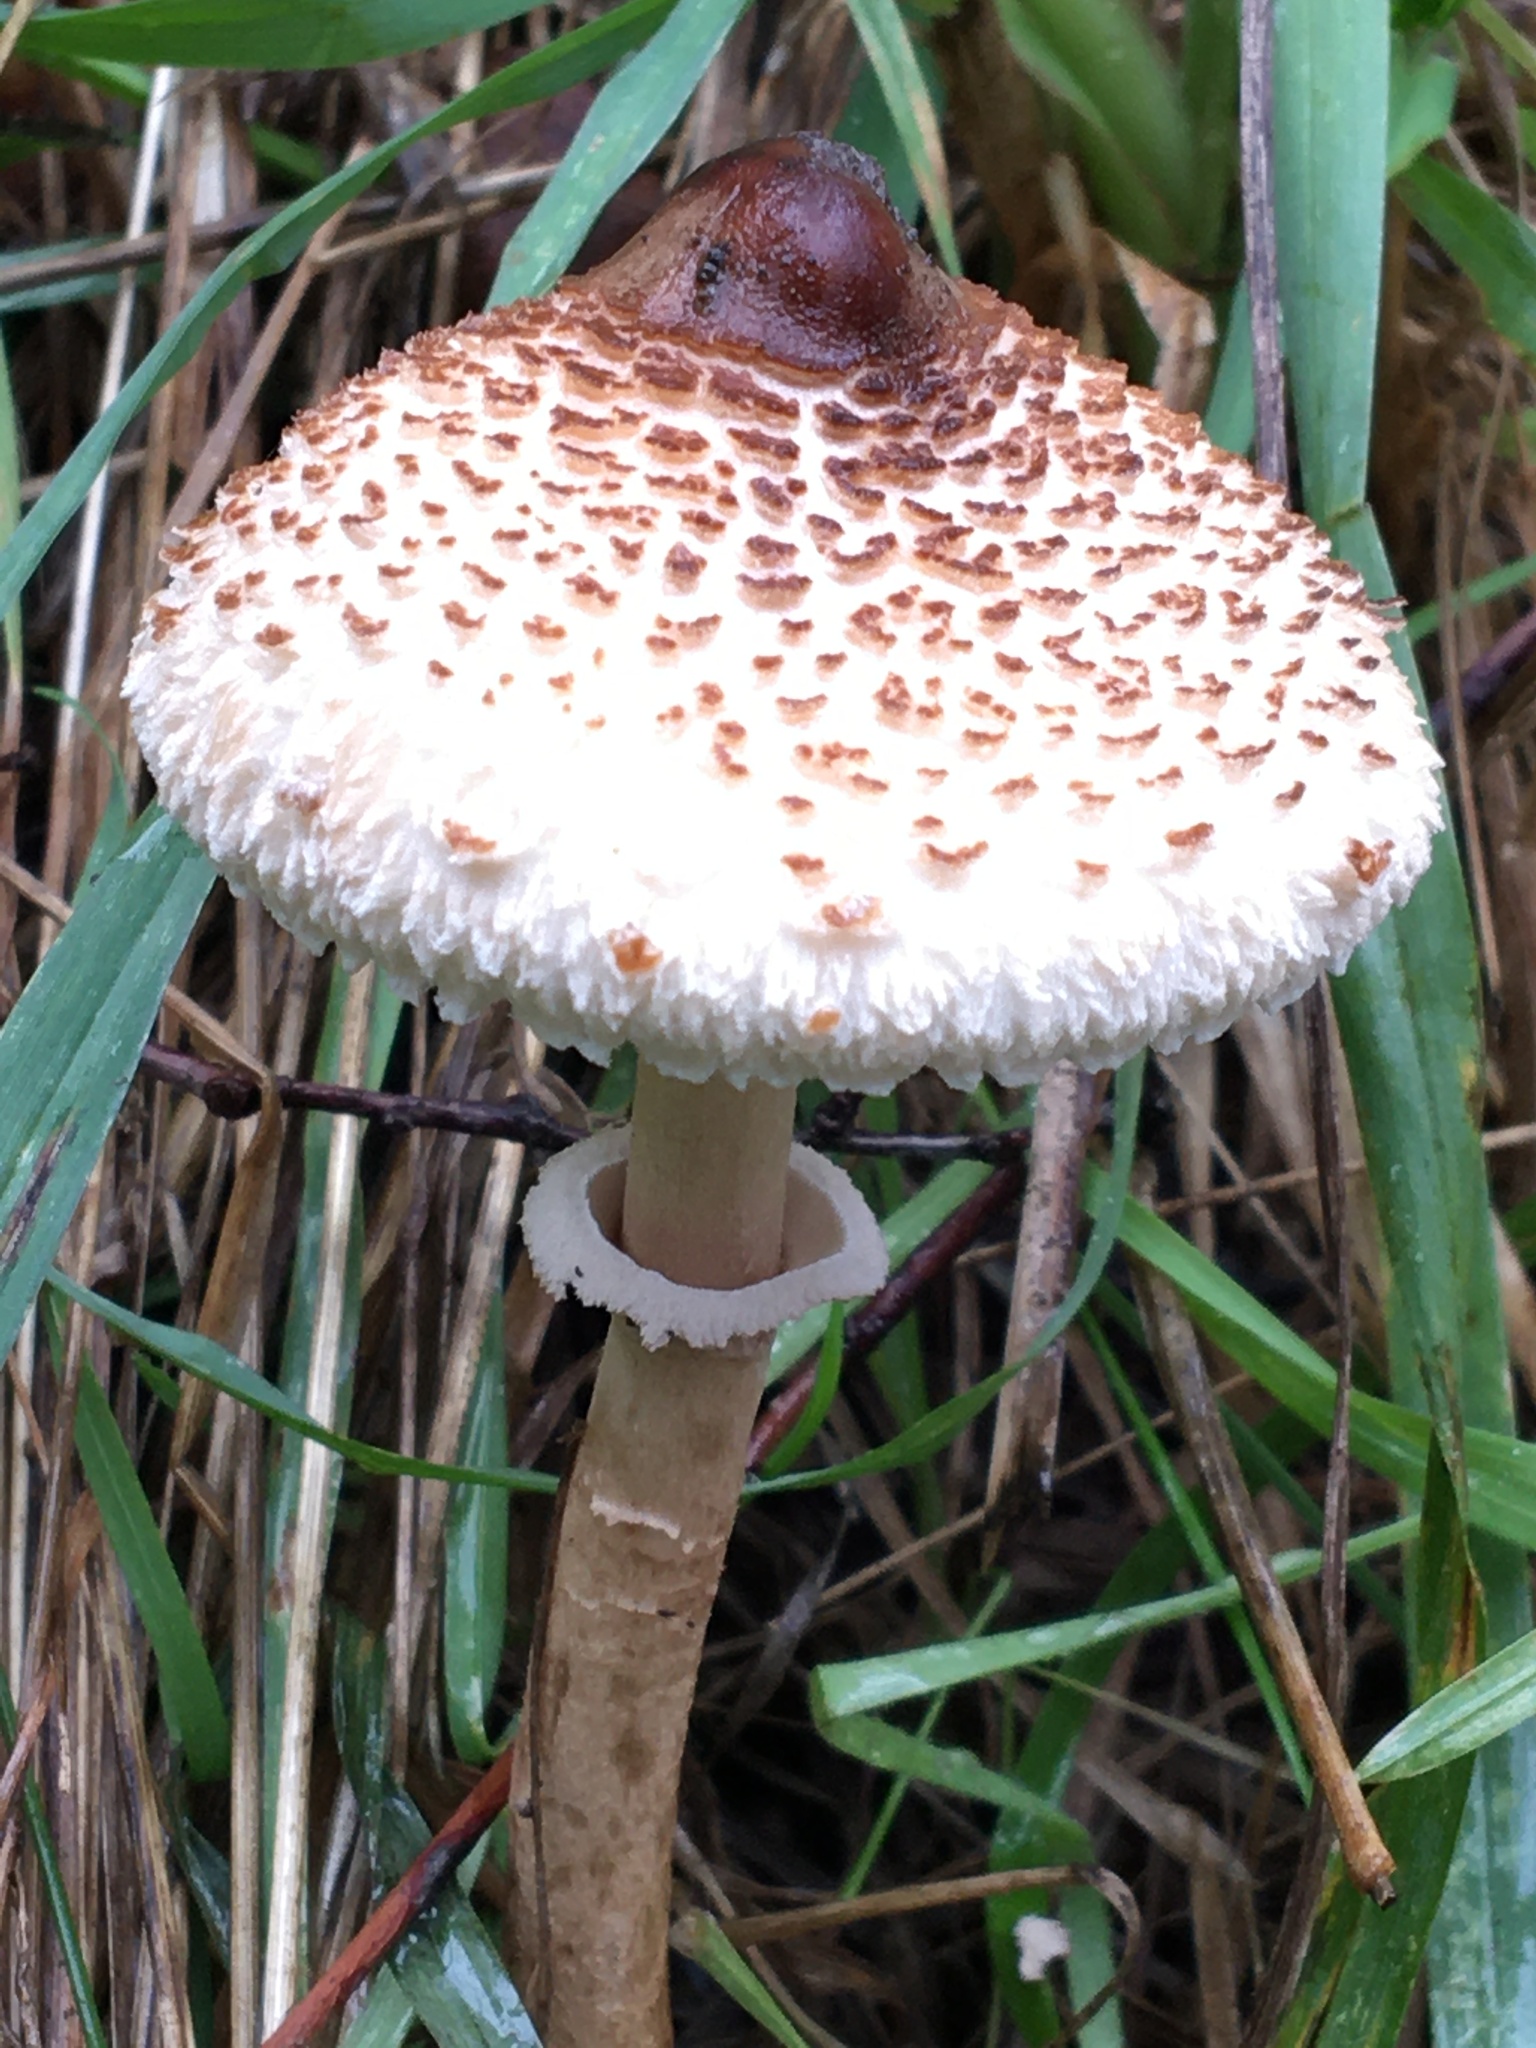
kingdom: Fungi
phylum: Basidiomycota
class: Agaricomycetes
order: Agaricales
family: Agaricaceae
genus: Macrolepiota
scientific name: Macrolepiota clelandii
